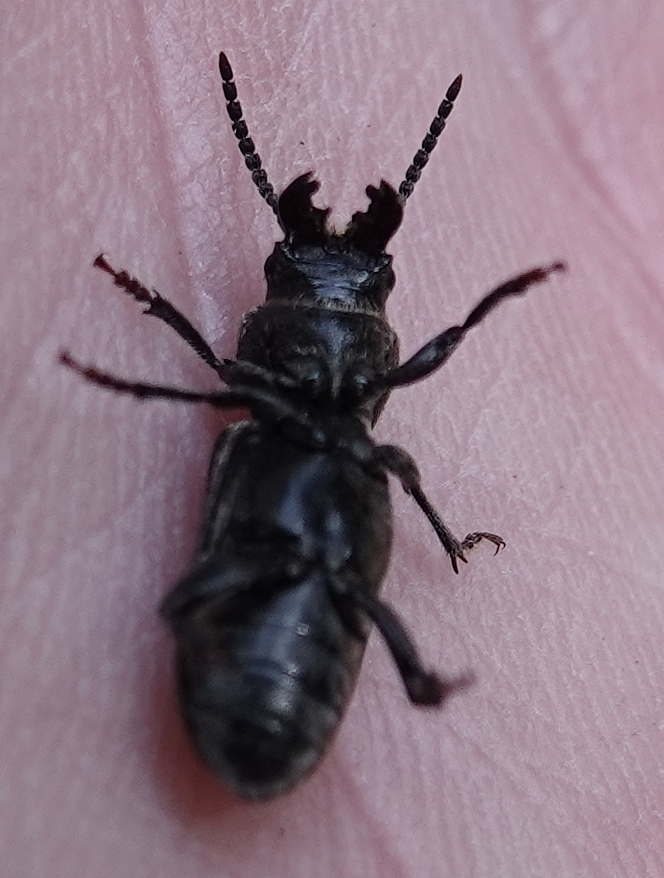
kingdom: Animalia
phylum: Arthropoda
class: Insecta
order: Coleoptera
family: Cerambycidae
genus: Neospondylis
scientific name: Neospondylis upiformis
